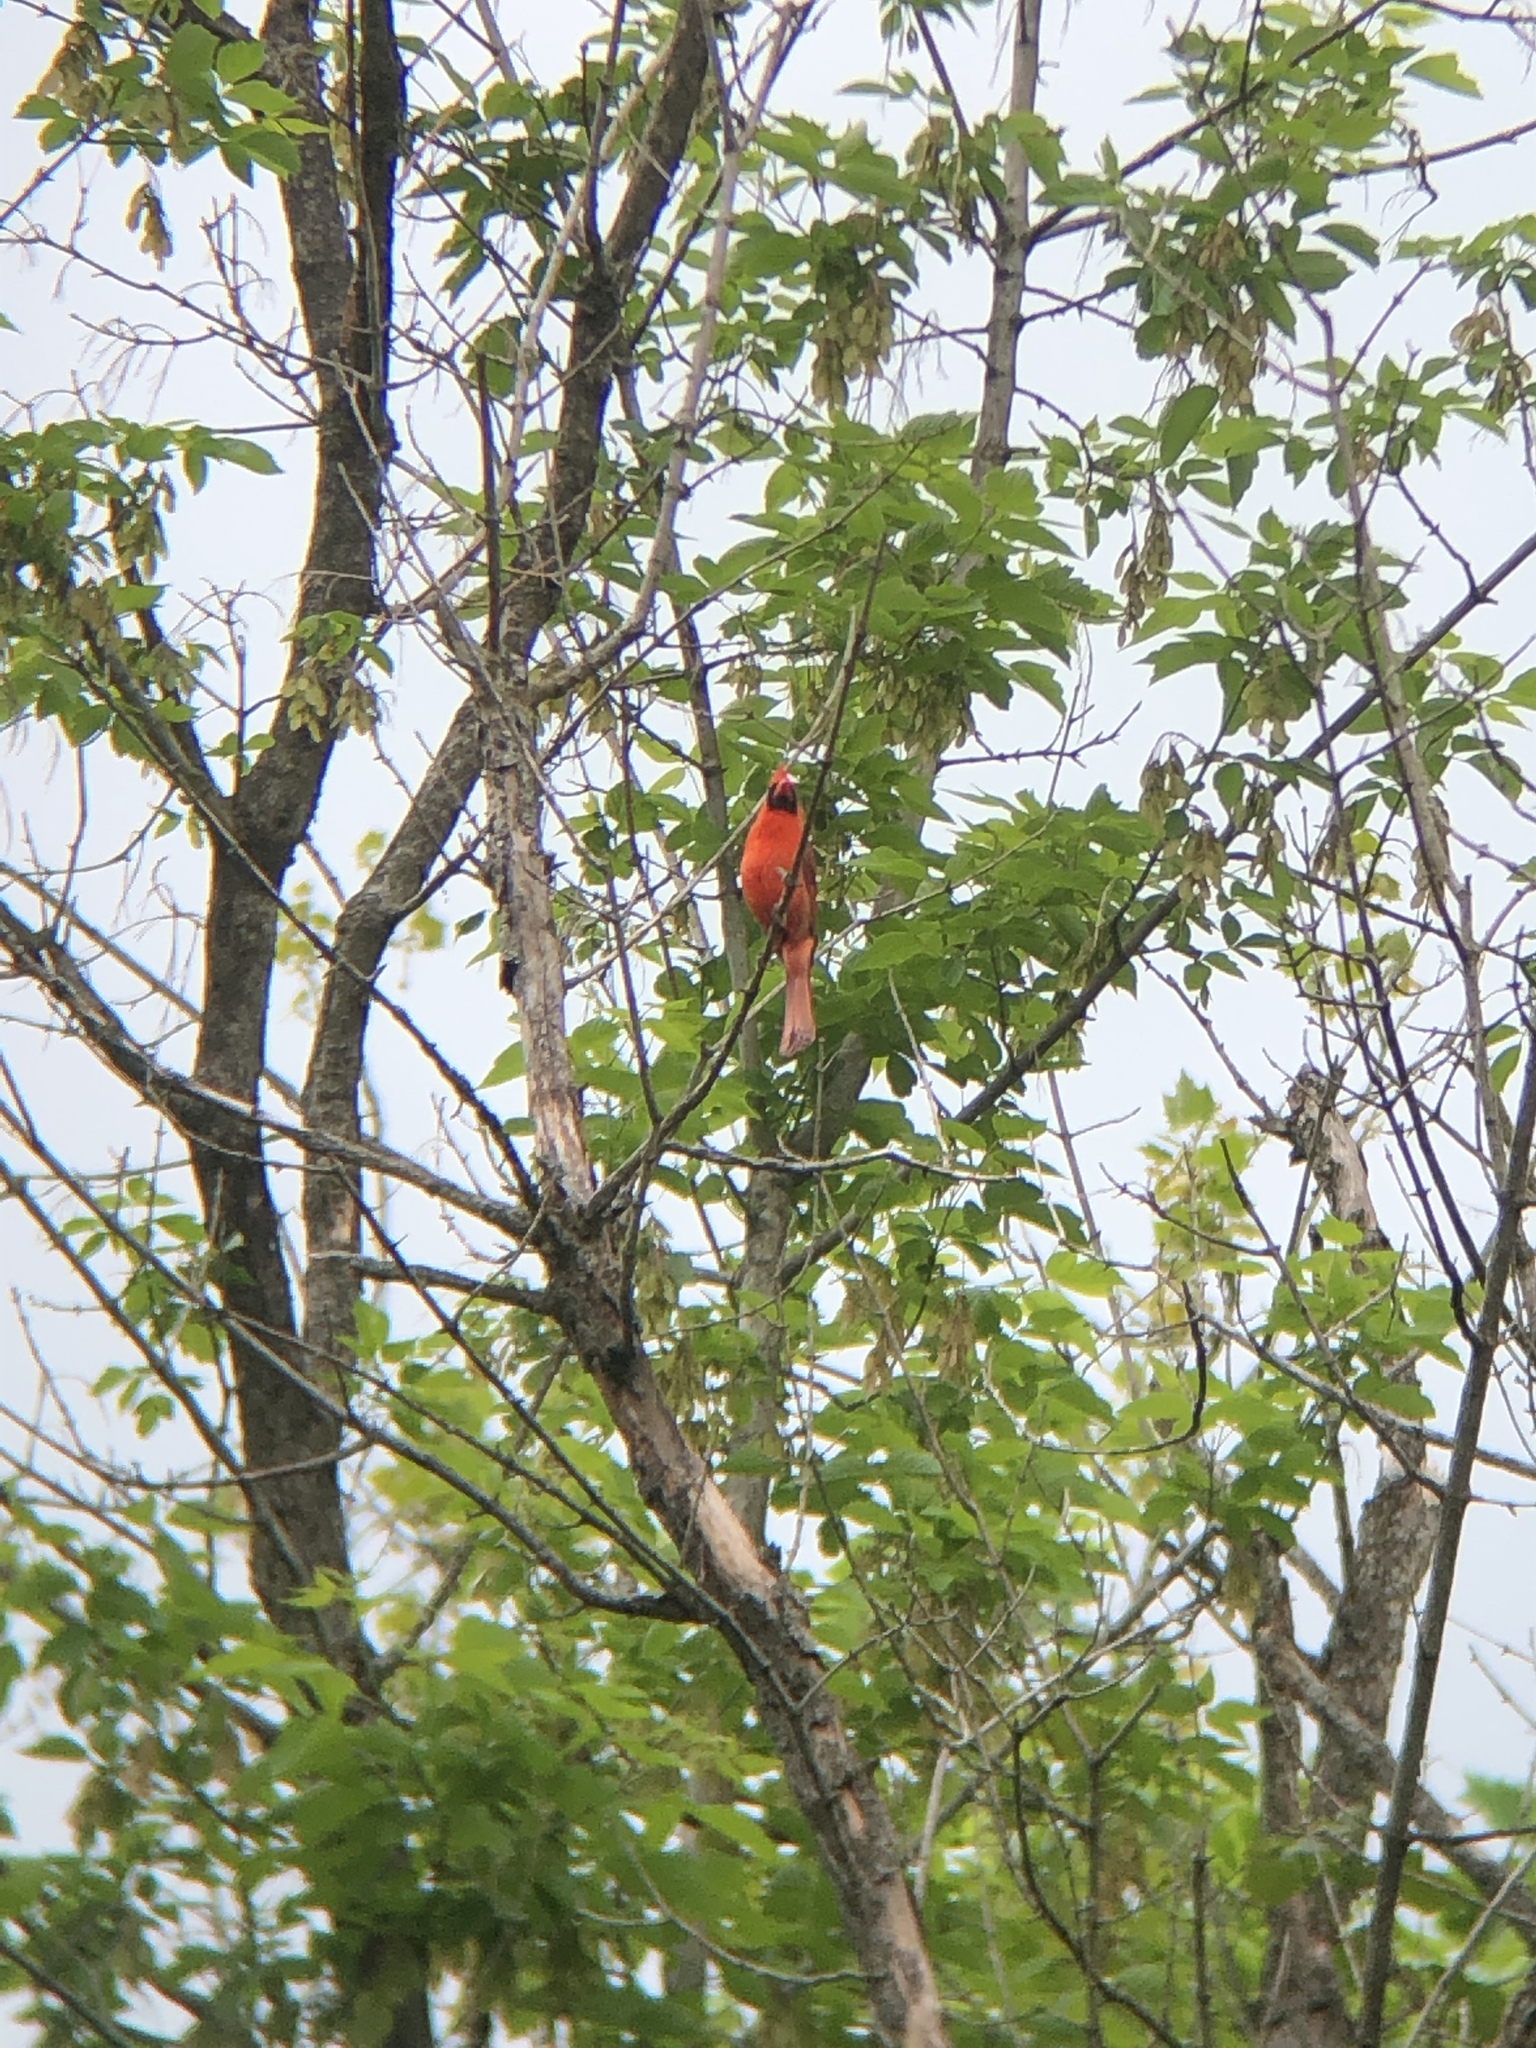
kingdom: Animalia
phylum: Chordata
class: Aves
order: Passeriformes
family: Cardinalidae
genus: Cardinalis
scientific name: Cardinalis cardinalis
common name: Northern cardinal
